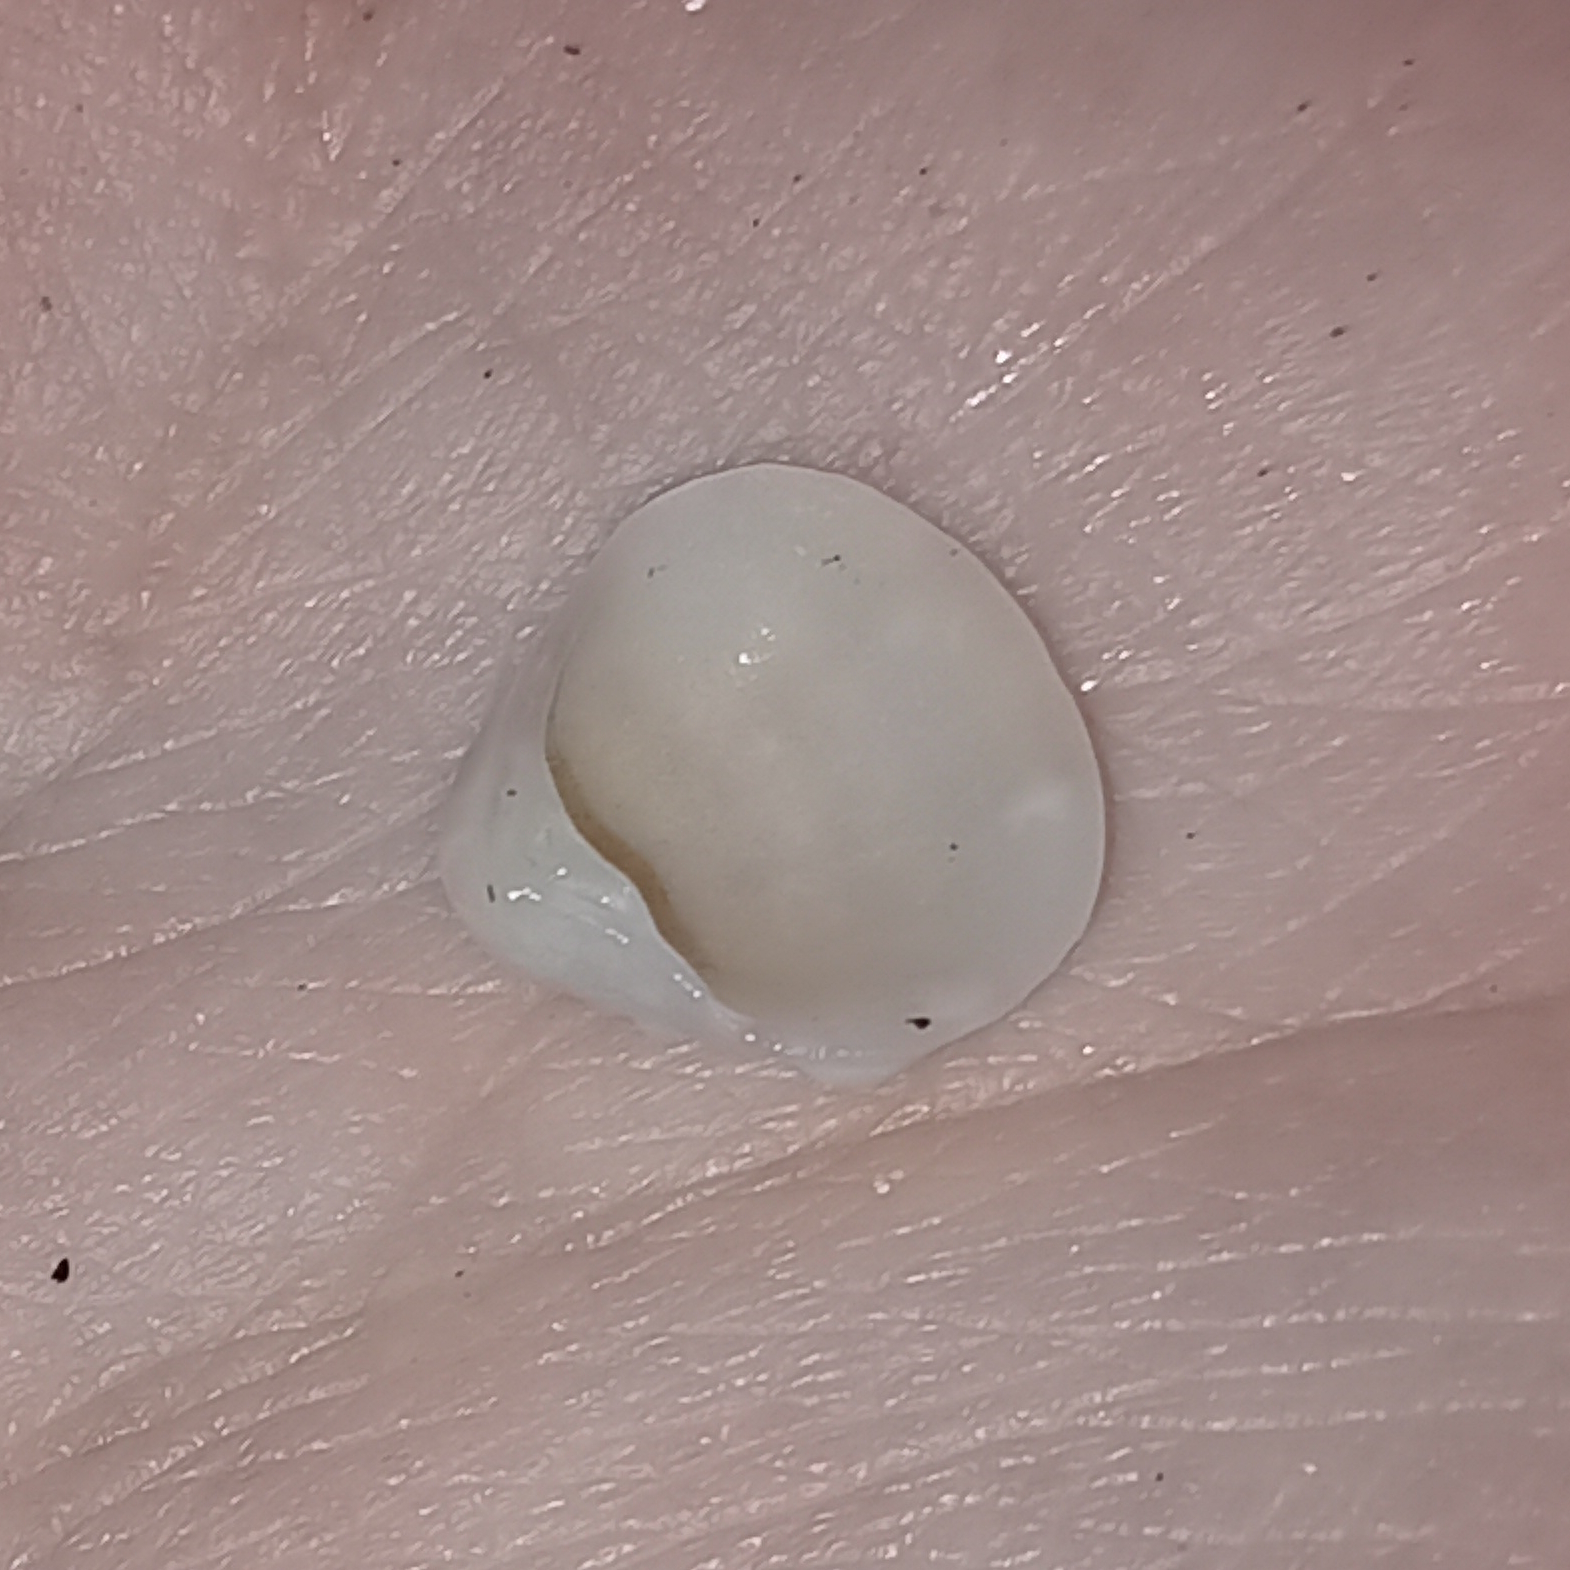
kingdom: Animalia
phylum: Mollusca
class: Bivalvia
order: Venerida
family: Veneridae
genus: Lirophora
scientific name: Lirophora paphia
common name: King venus
